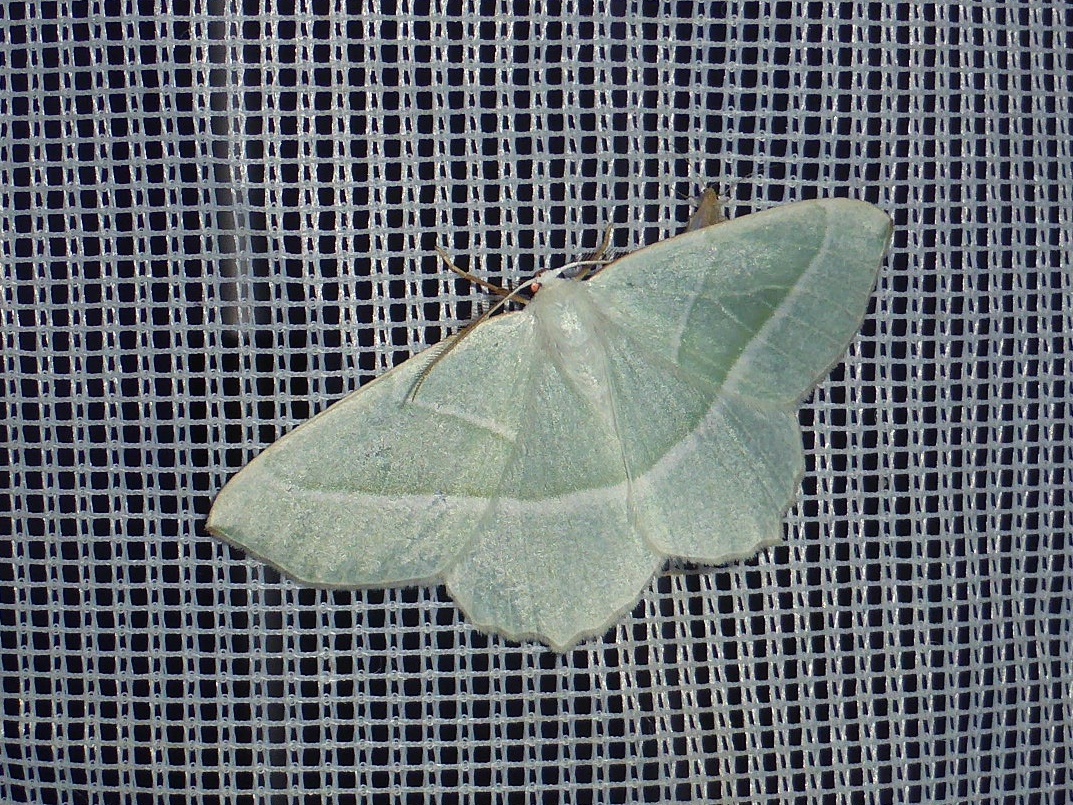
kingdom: Animalia
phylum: Arthropoda
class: Insecta
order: Lepidoptera
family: Geometridae
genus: Campaea
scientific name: Campaea margaritaria
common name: Light emerald
